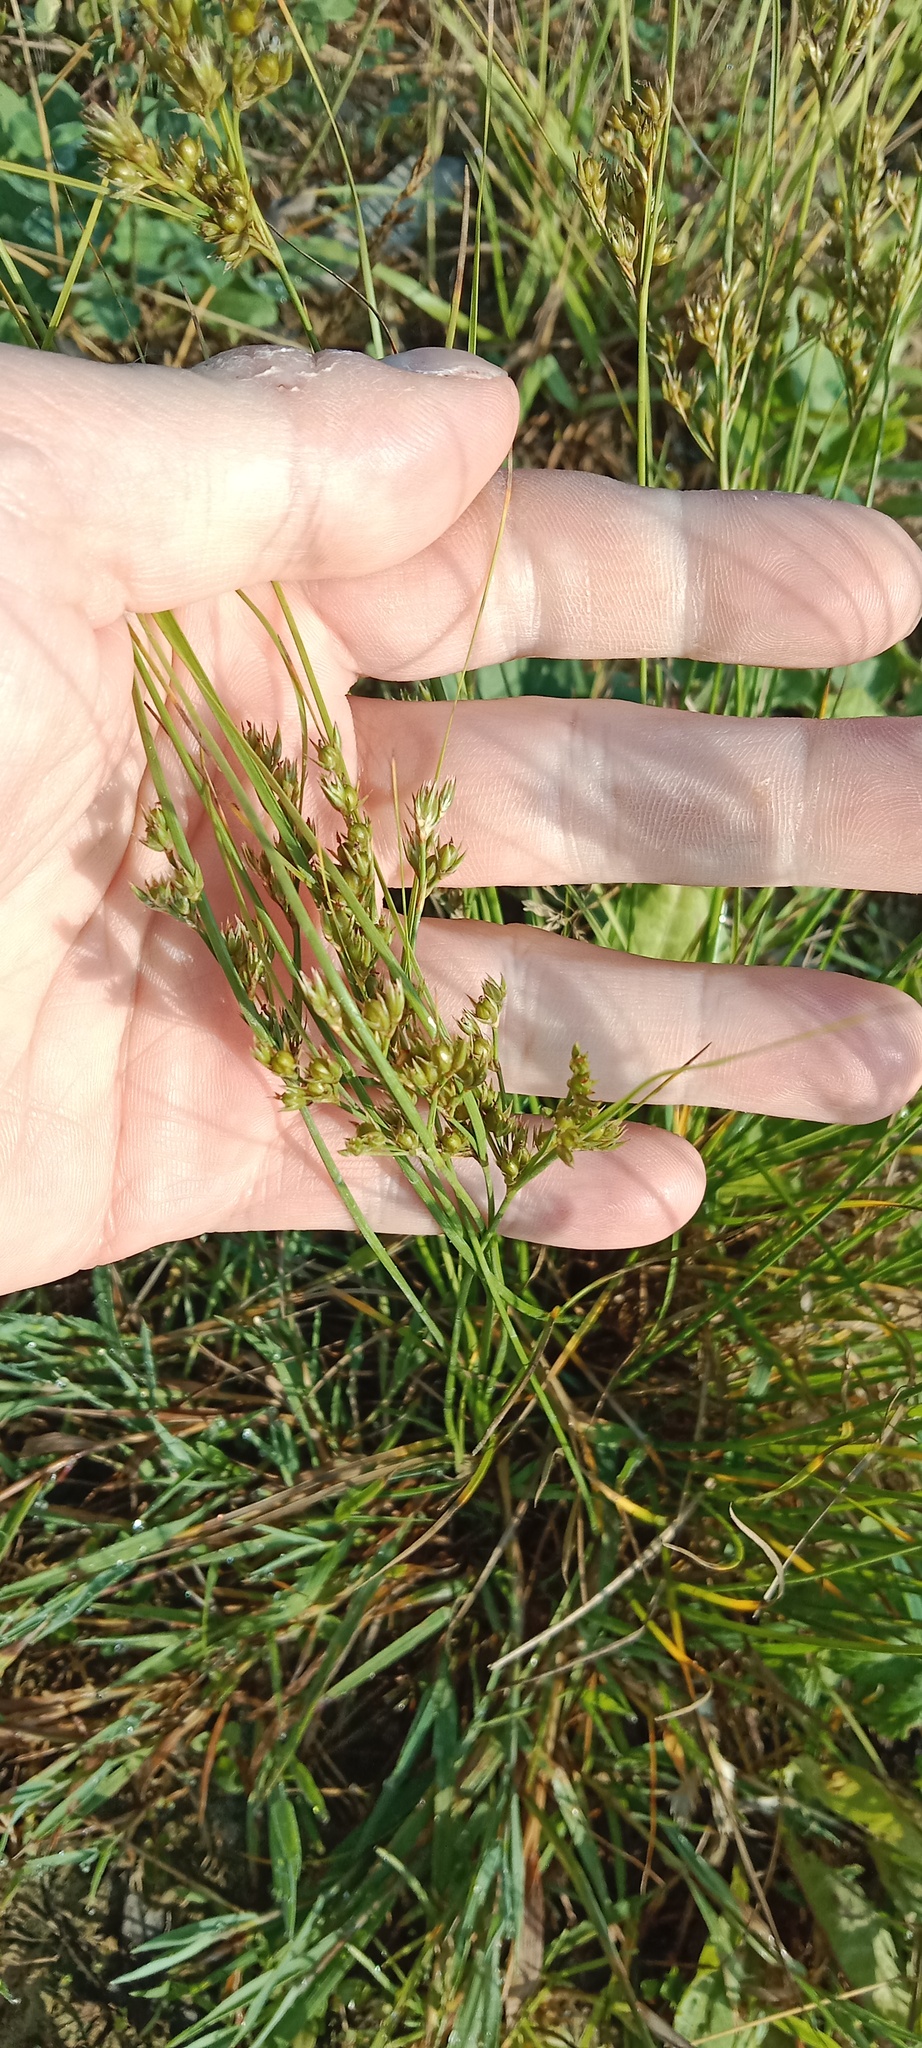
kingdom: Plantae
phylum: Tracheophyta
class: Liliopsida
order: Poales
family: Juncaceae
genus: Juncus
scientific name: Juncus tenuis
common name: Slender rush
